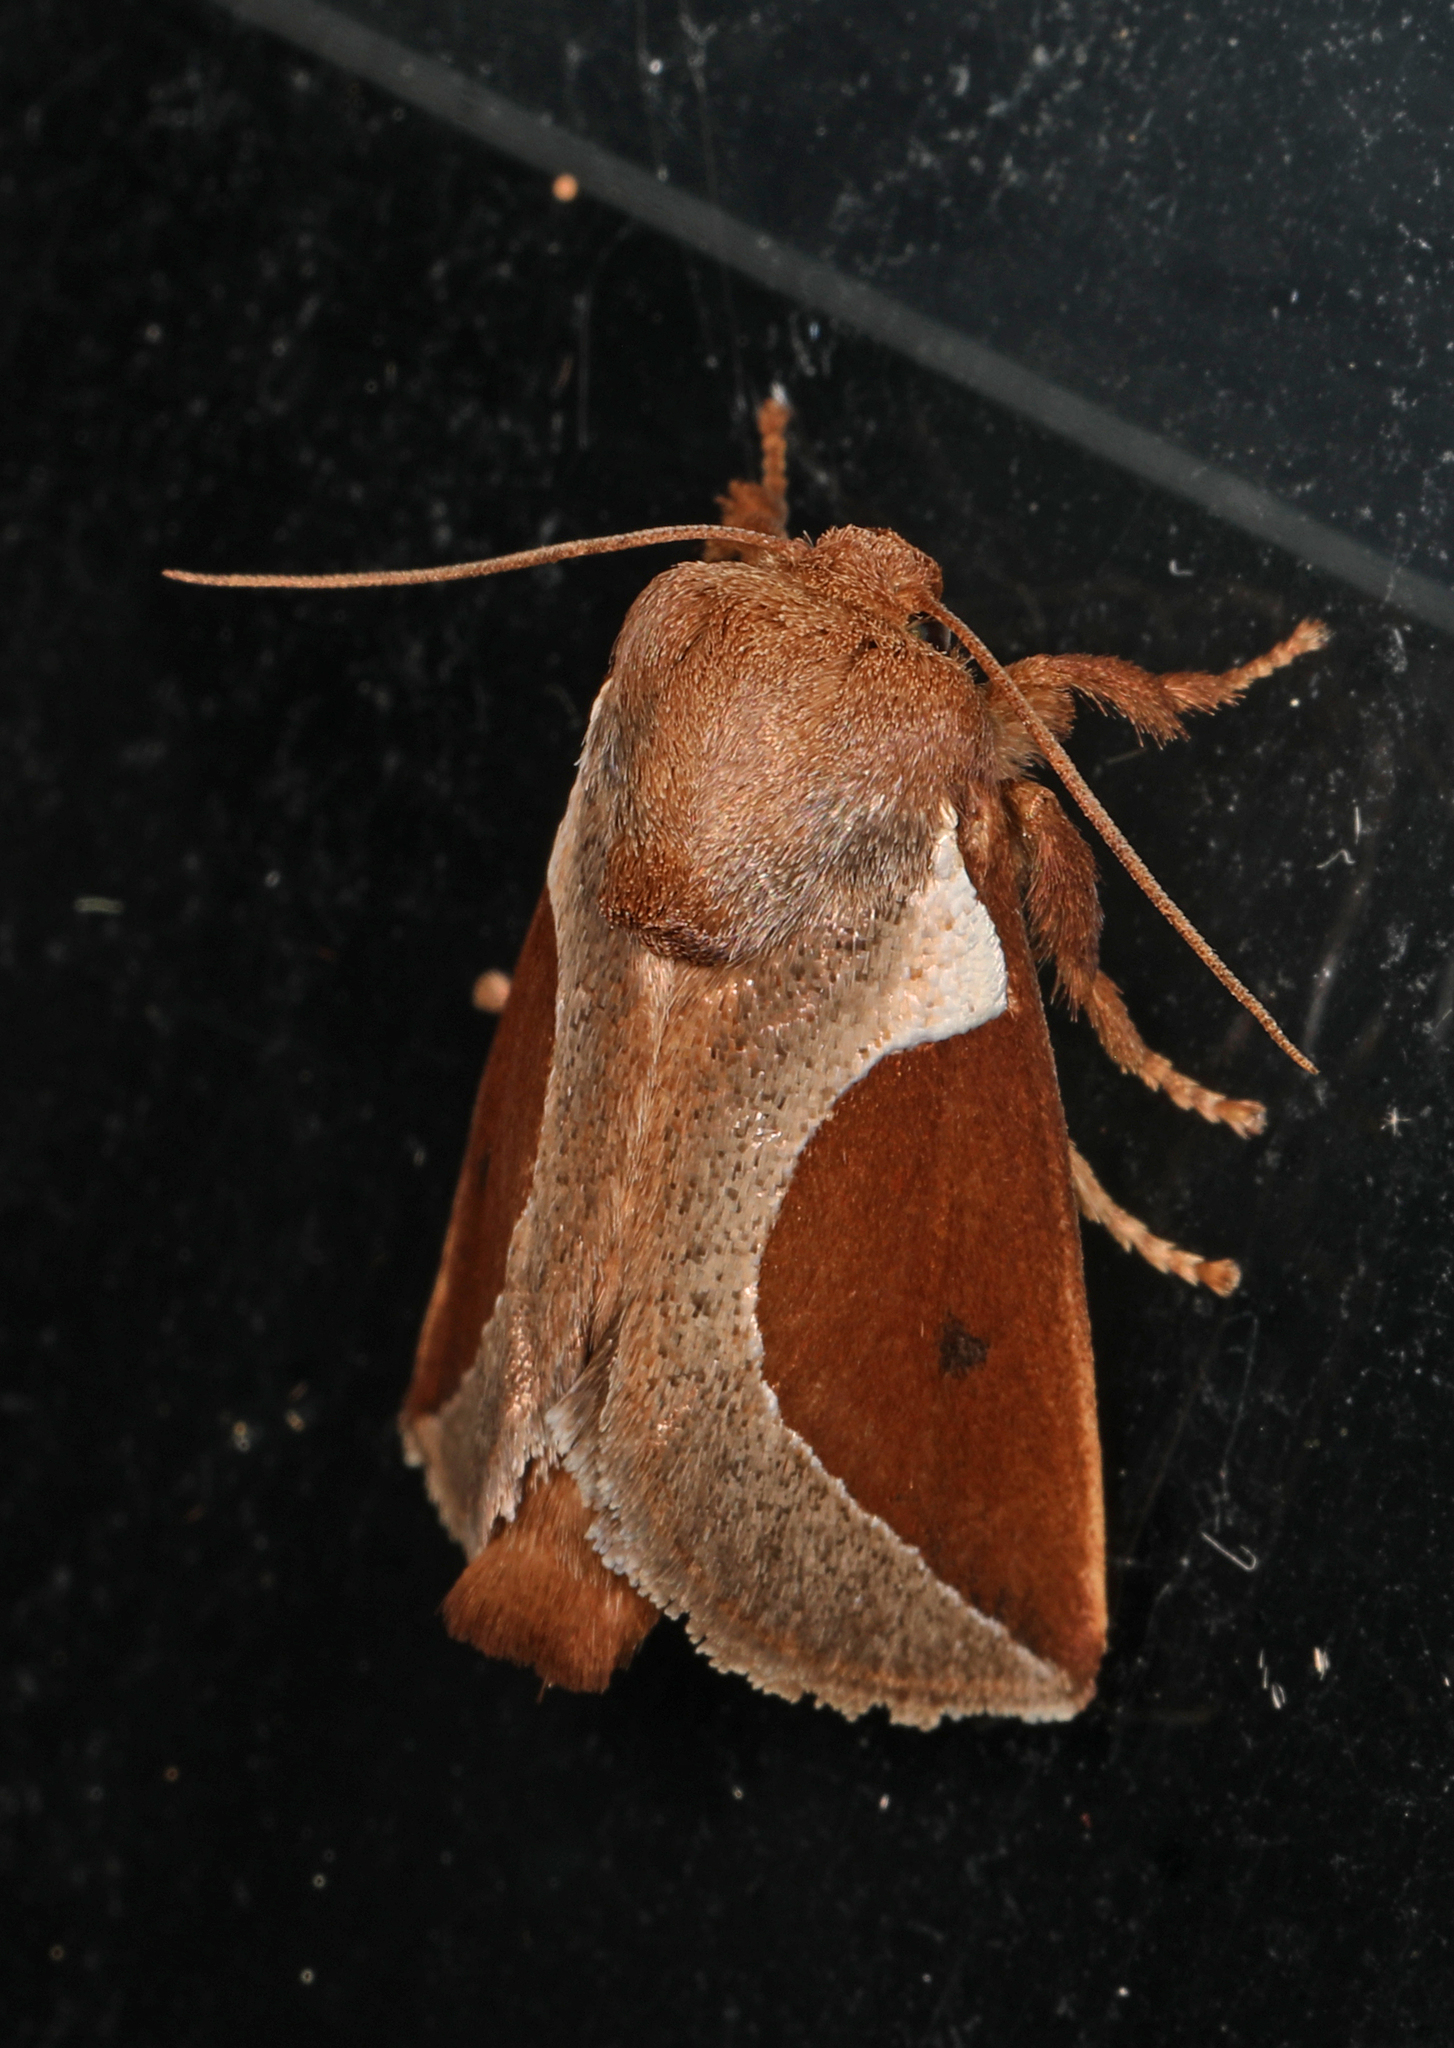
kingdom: Animalia
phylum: Arthropoda
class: Insecta
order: Lepidoptera
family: Limacodidae
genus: Prolimacodes
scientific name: Prolimacodes badia
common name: Skiff moth
